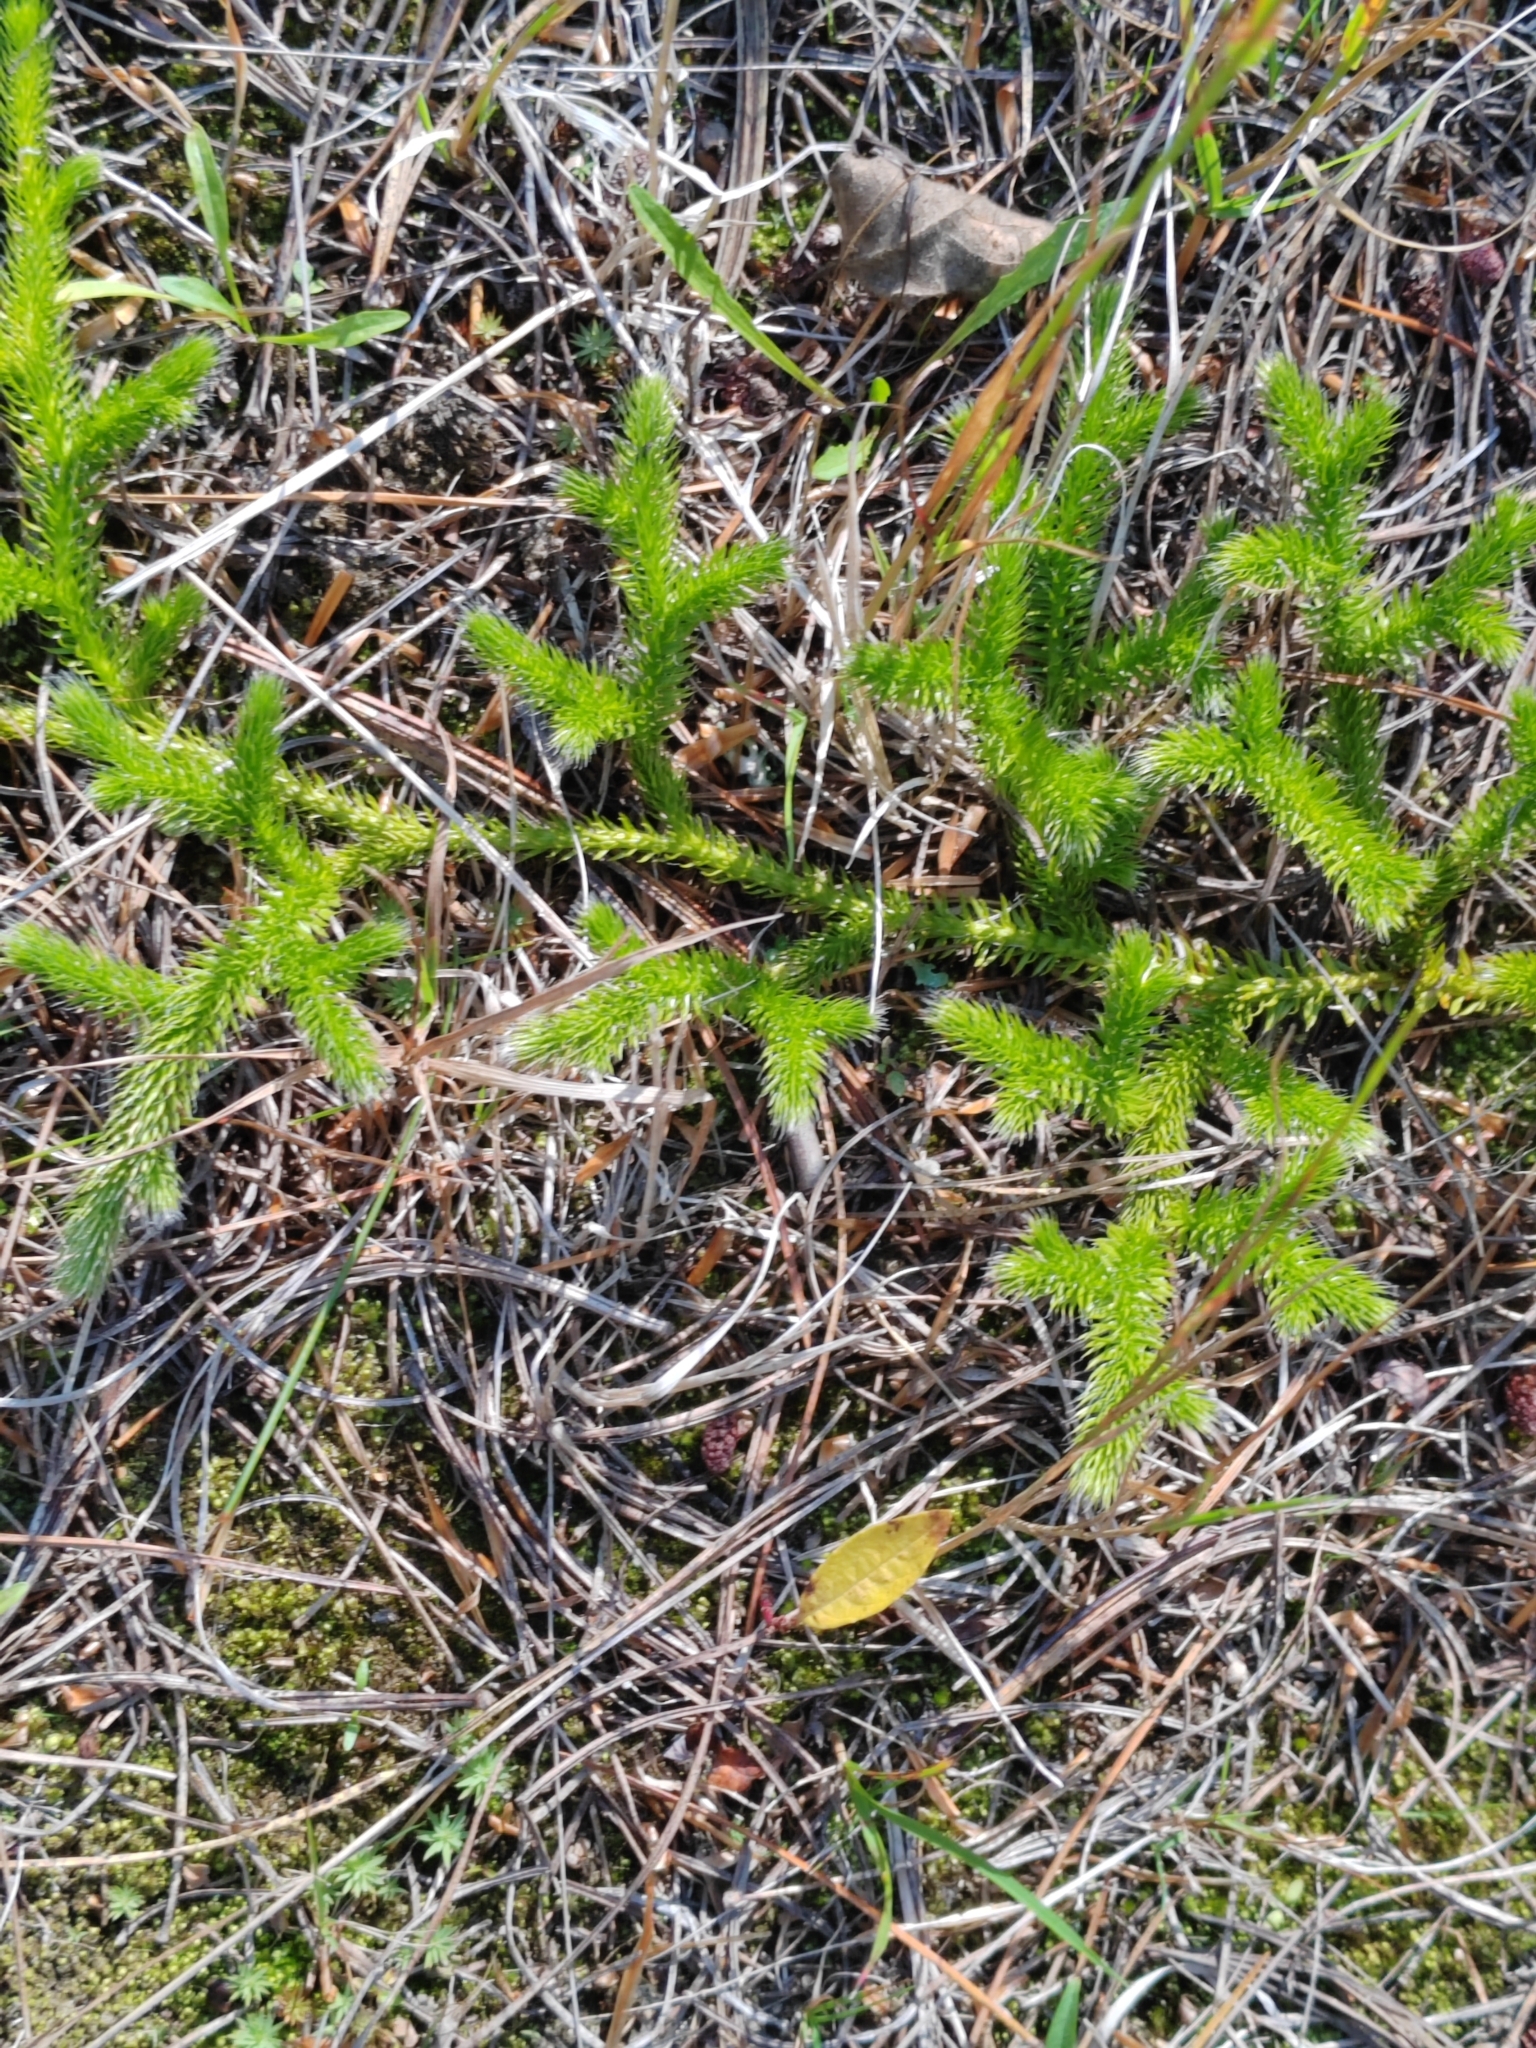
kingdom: Plantae
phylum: Tracheophyta
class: Lycopodiopsida
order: Lycopodiales
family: Lycopodiaceae
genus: Lycopodium
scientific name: Lycopodium clavatum
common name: Stag's-horn clubmoss
